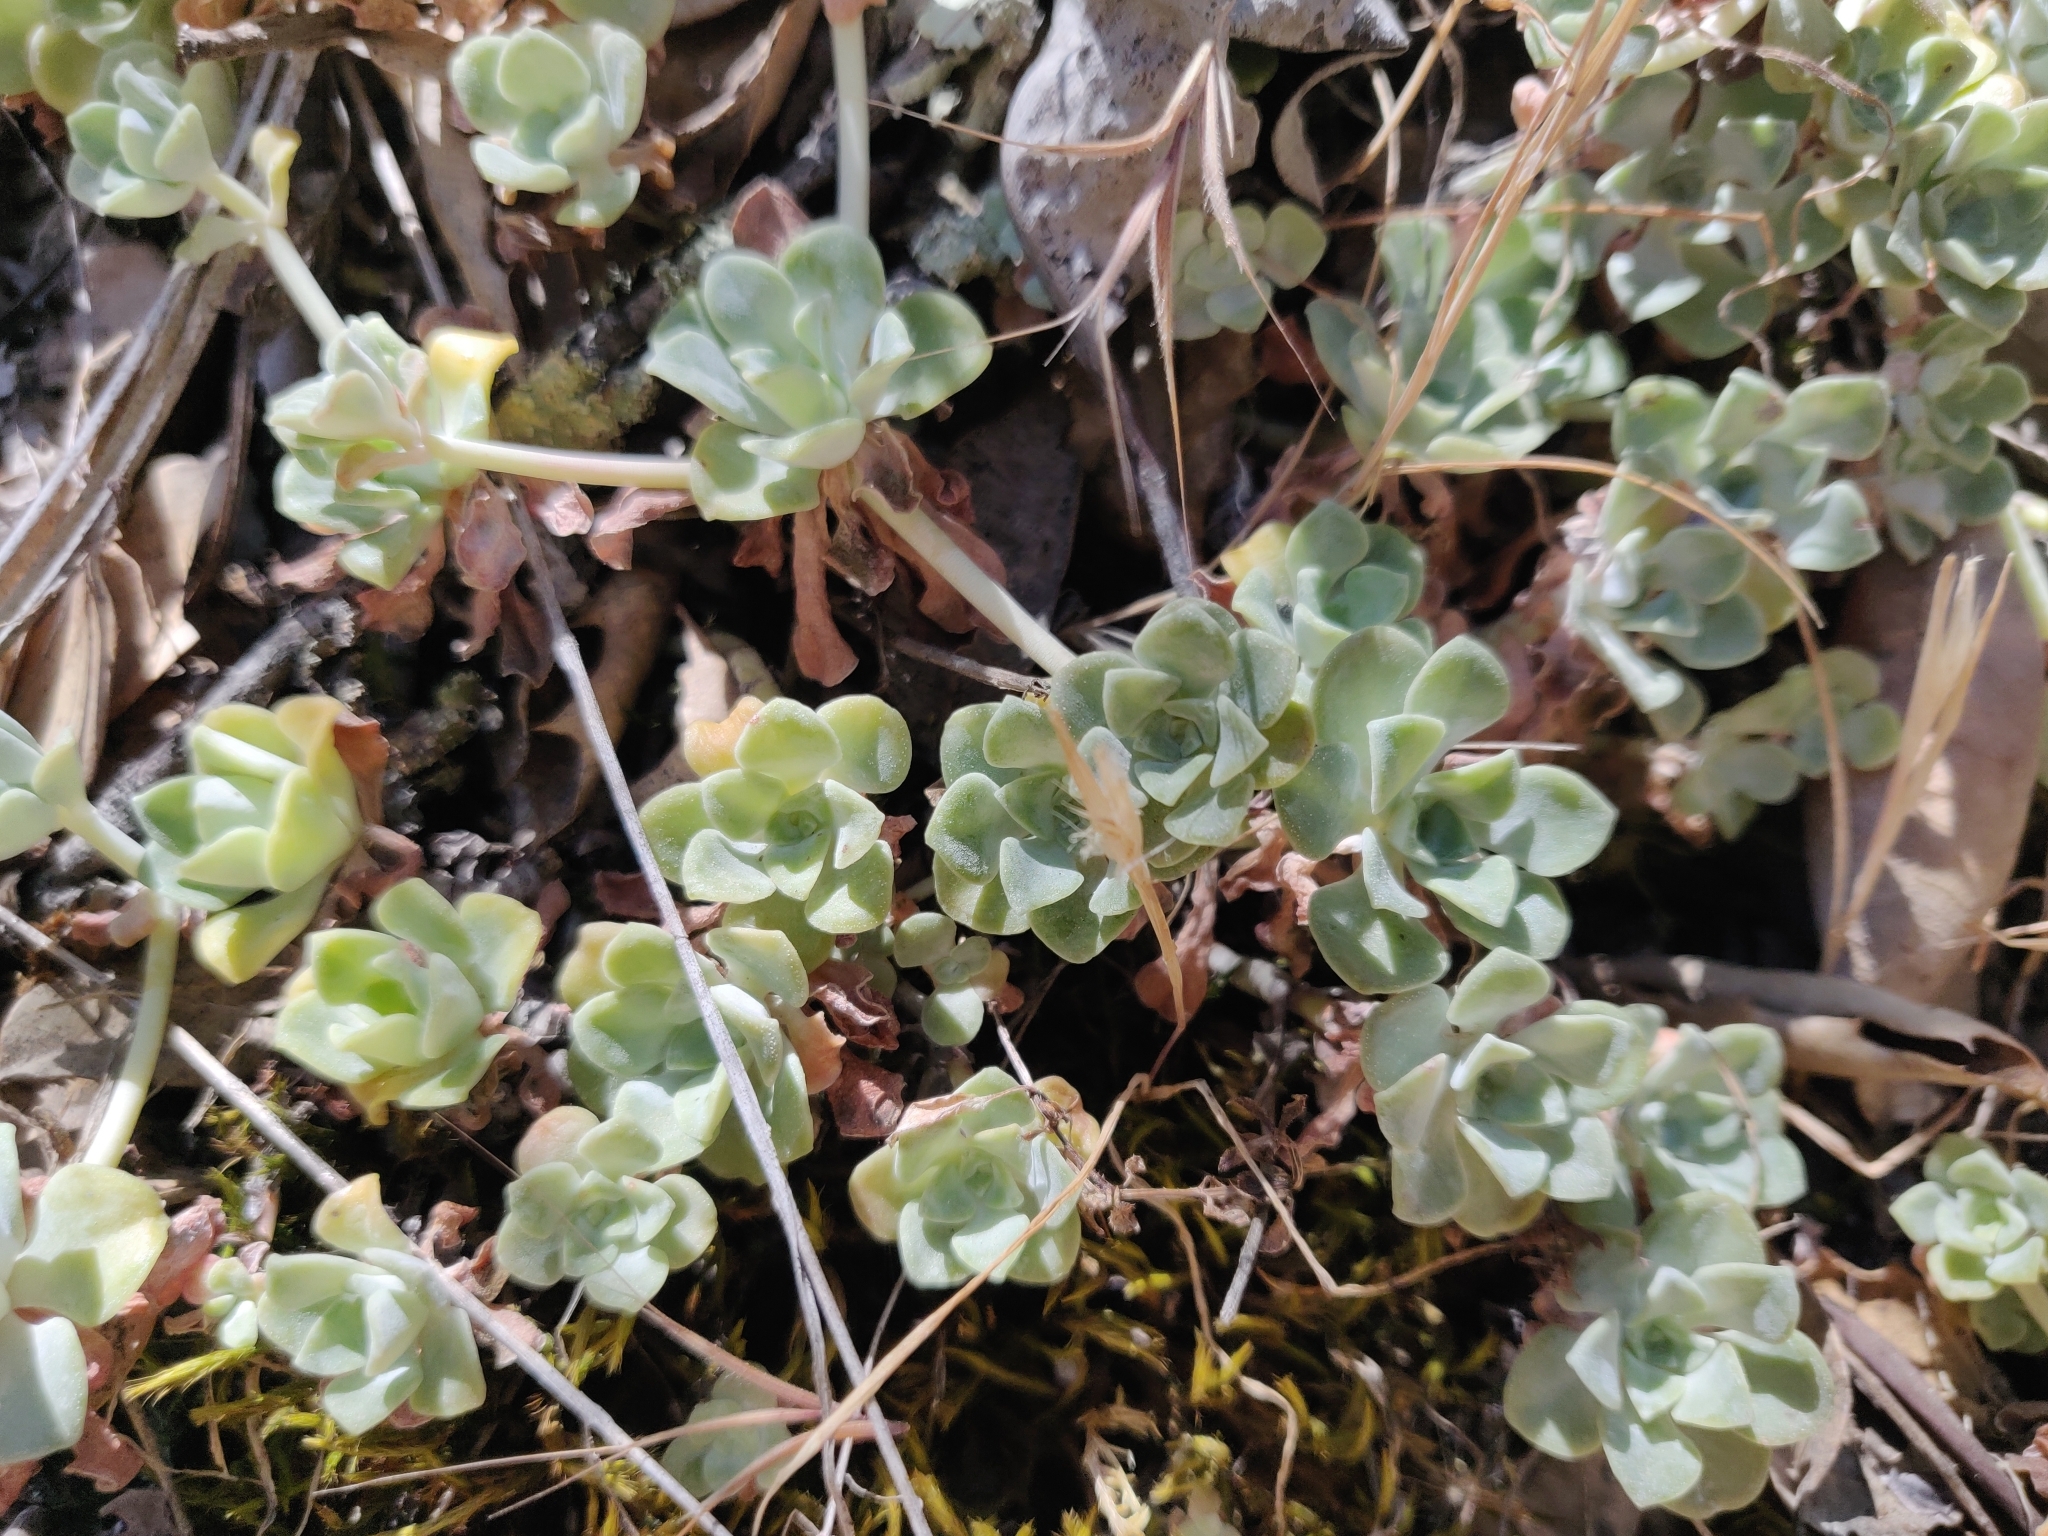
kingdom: Plantae
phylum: Tracheophyta
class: Magnoliopsida
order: Saxifragales
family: Crassulaceae
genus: Sedum
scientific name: Sedum spathulifolium
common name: Colorado stonecrop
